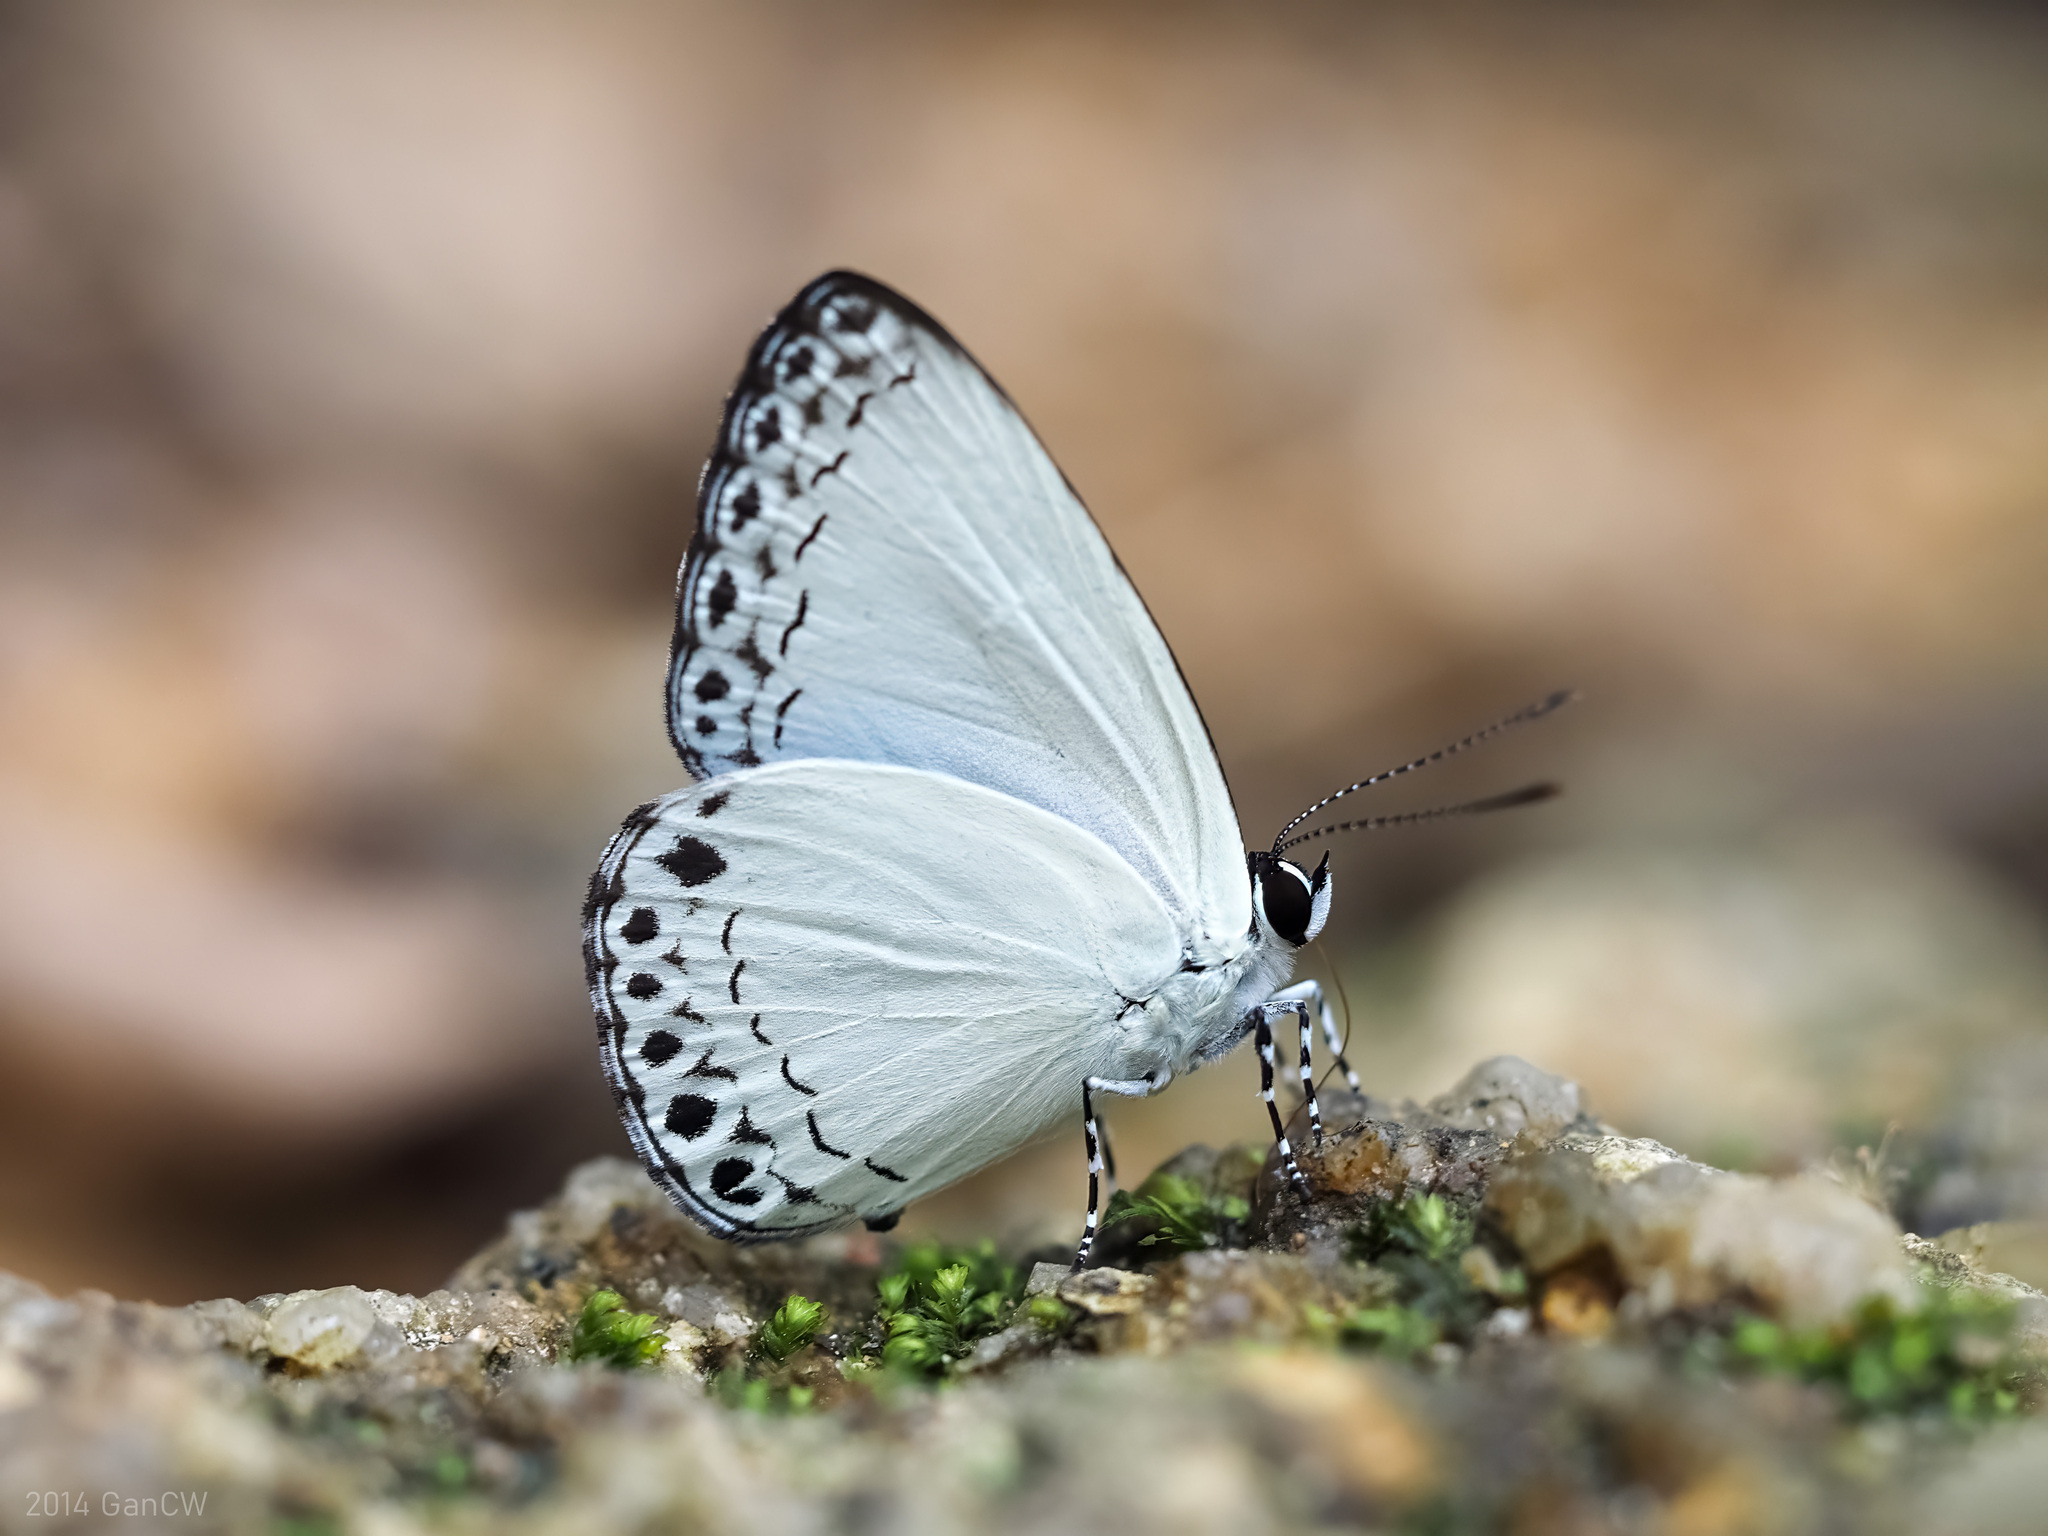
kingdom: Animalia
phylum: Arthropoda
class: Insecta
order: Lepidoptera
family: Lycaenidae
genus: Lycaenopsis
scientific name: Lycaenopsis haraldus
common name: Felder's hedge blue
